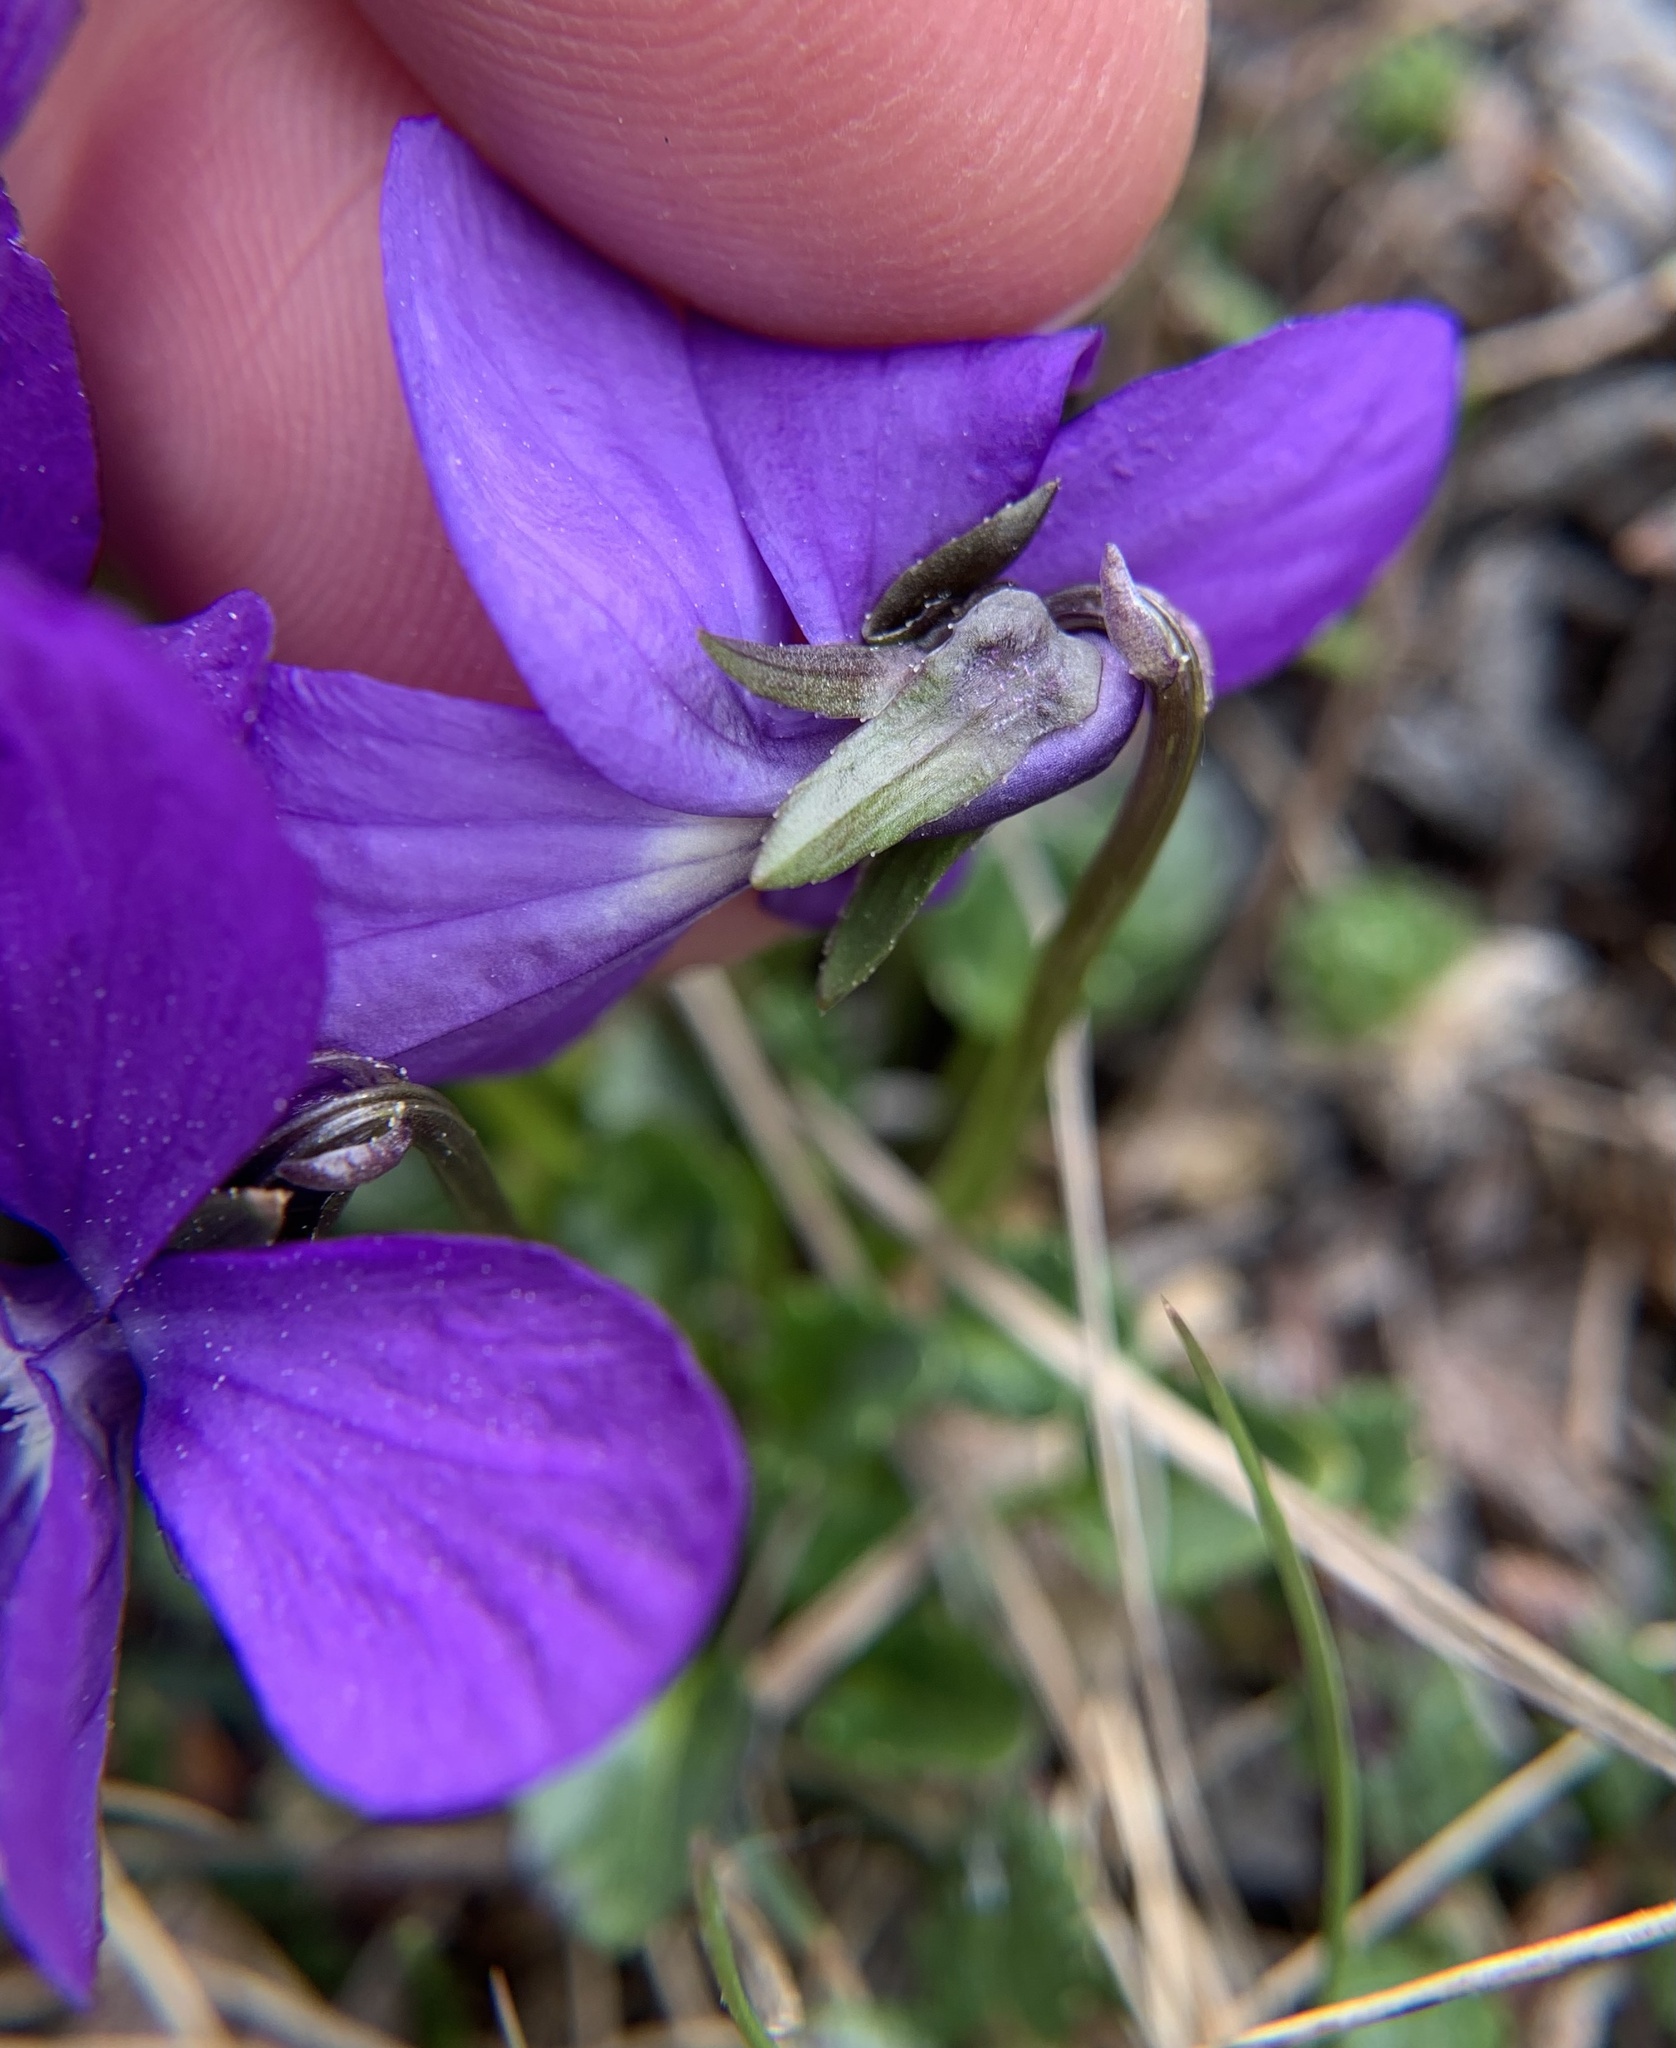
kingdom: Plantae
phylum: Tracheophyta
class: Magnoliopsida
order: Malpighiales
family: Violaceae
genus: Viola
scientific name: Viola alpina
